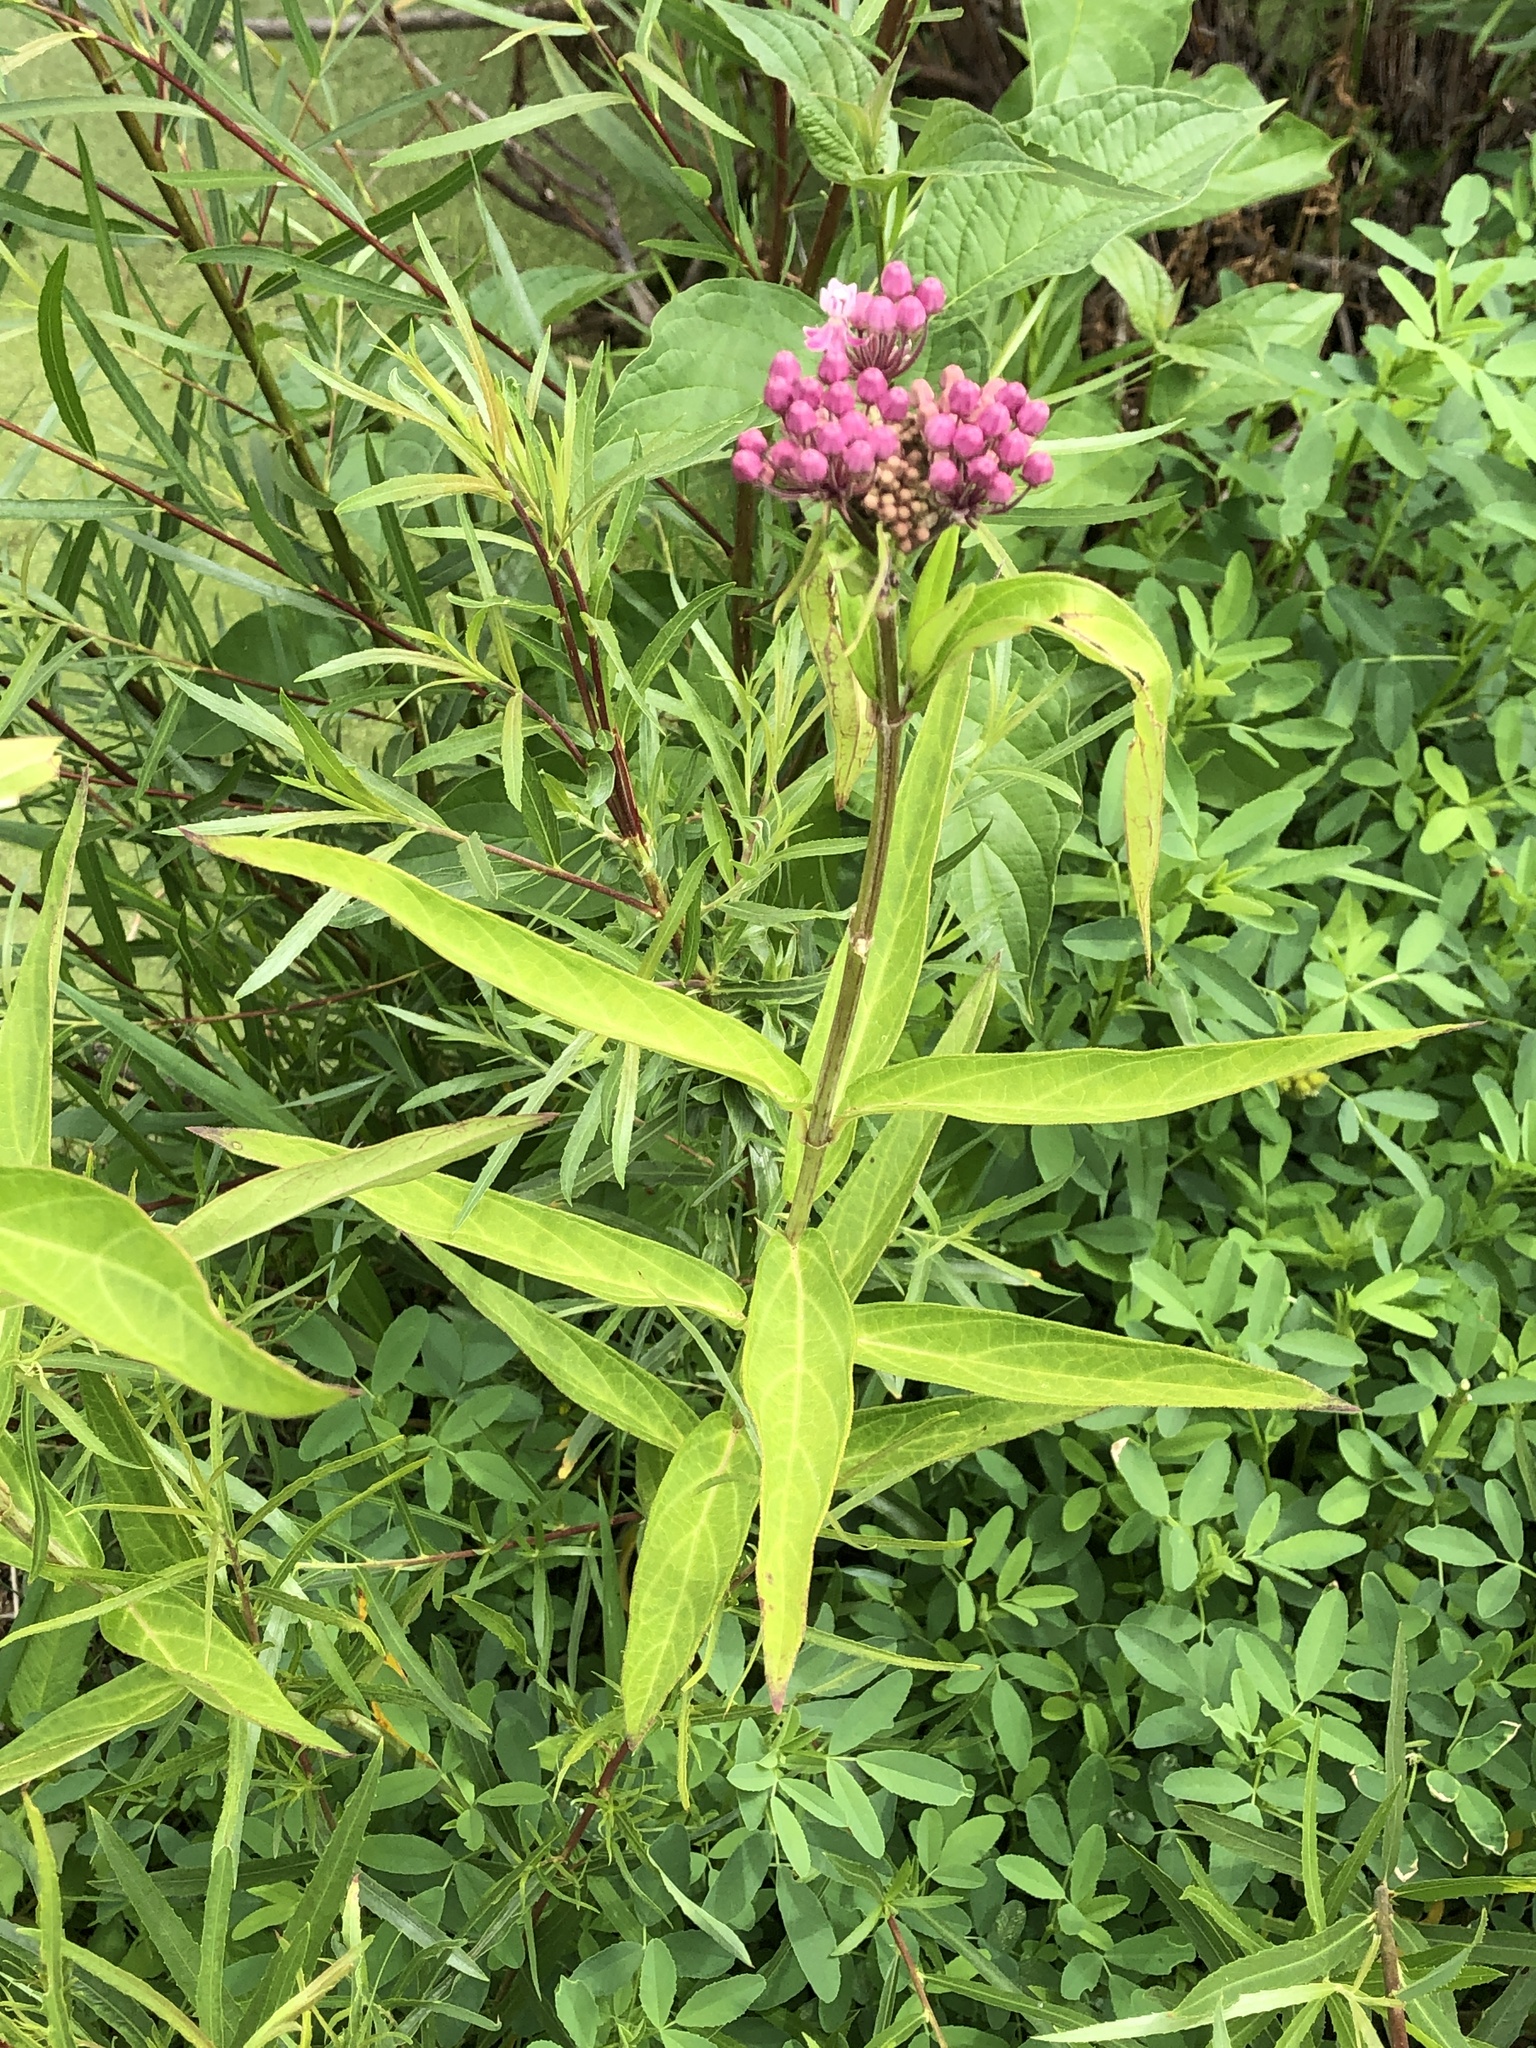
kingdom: Plantae
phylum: Tracheophyta
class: Magnoliopsida
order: Gentianales
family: Apocynaceae
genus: Asclepias
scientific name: Asclepias incarnata
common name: Swamp milkweed
